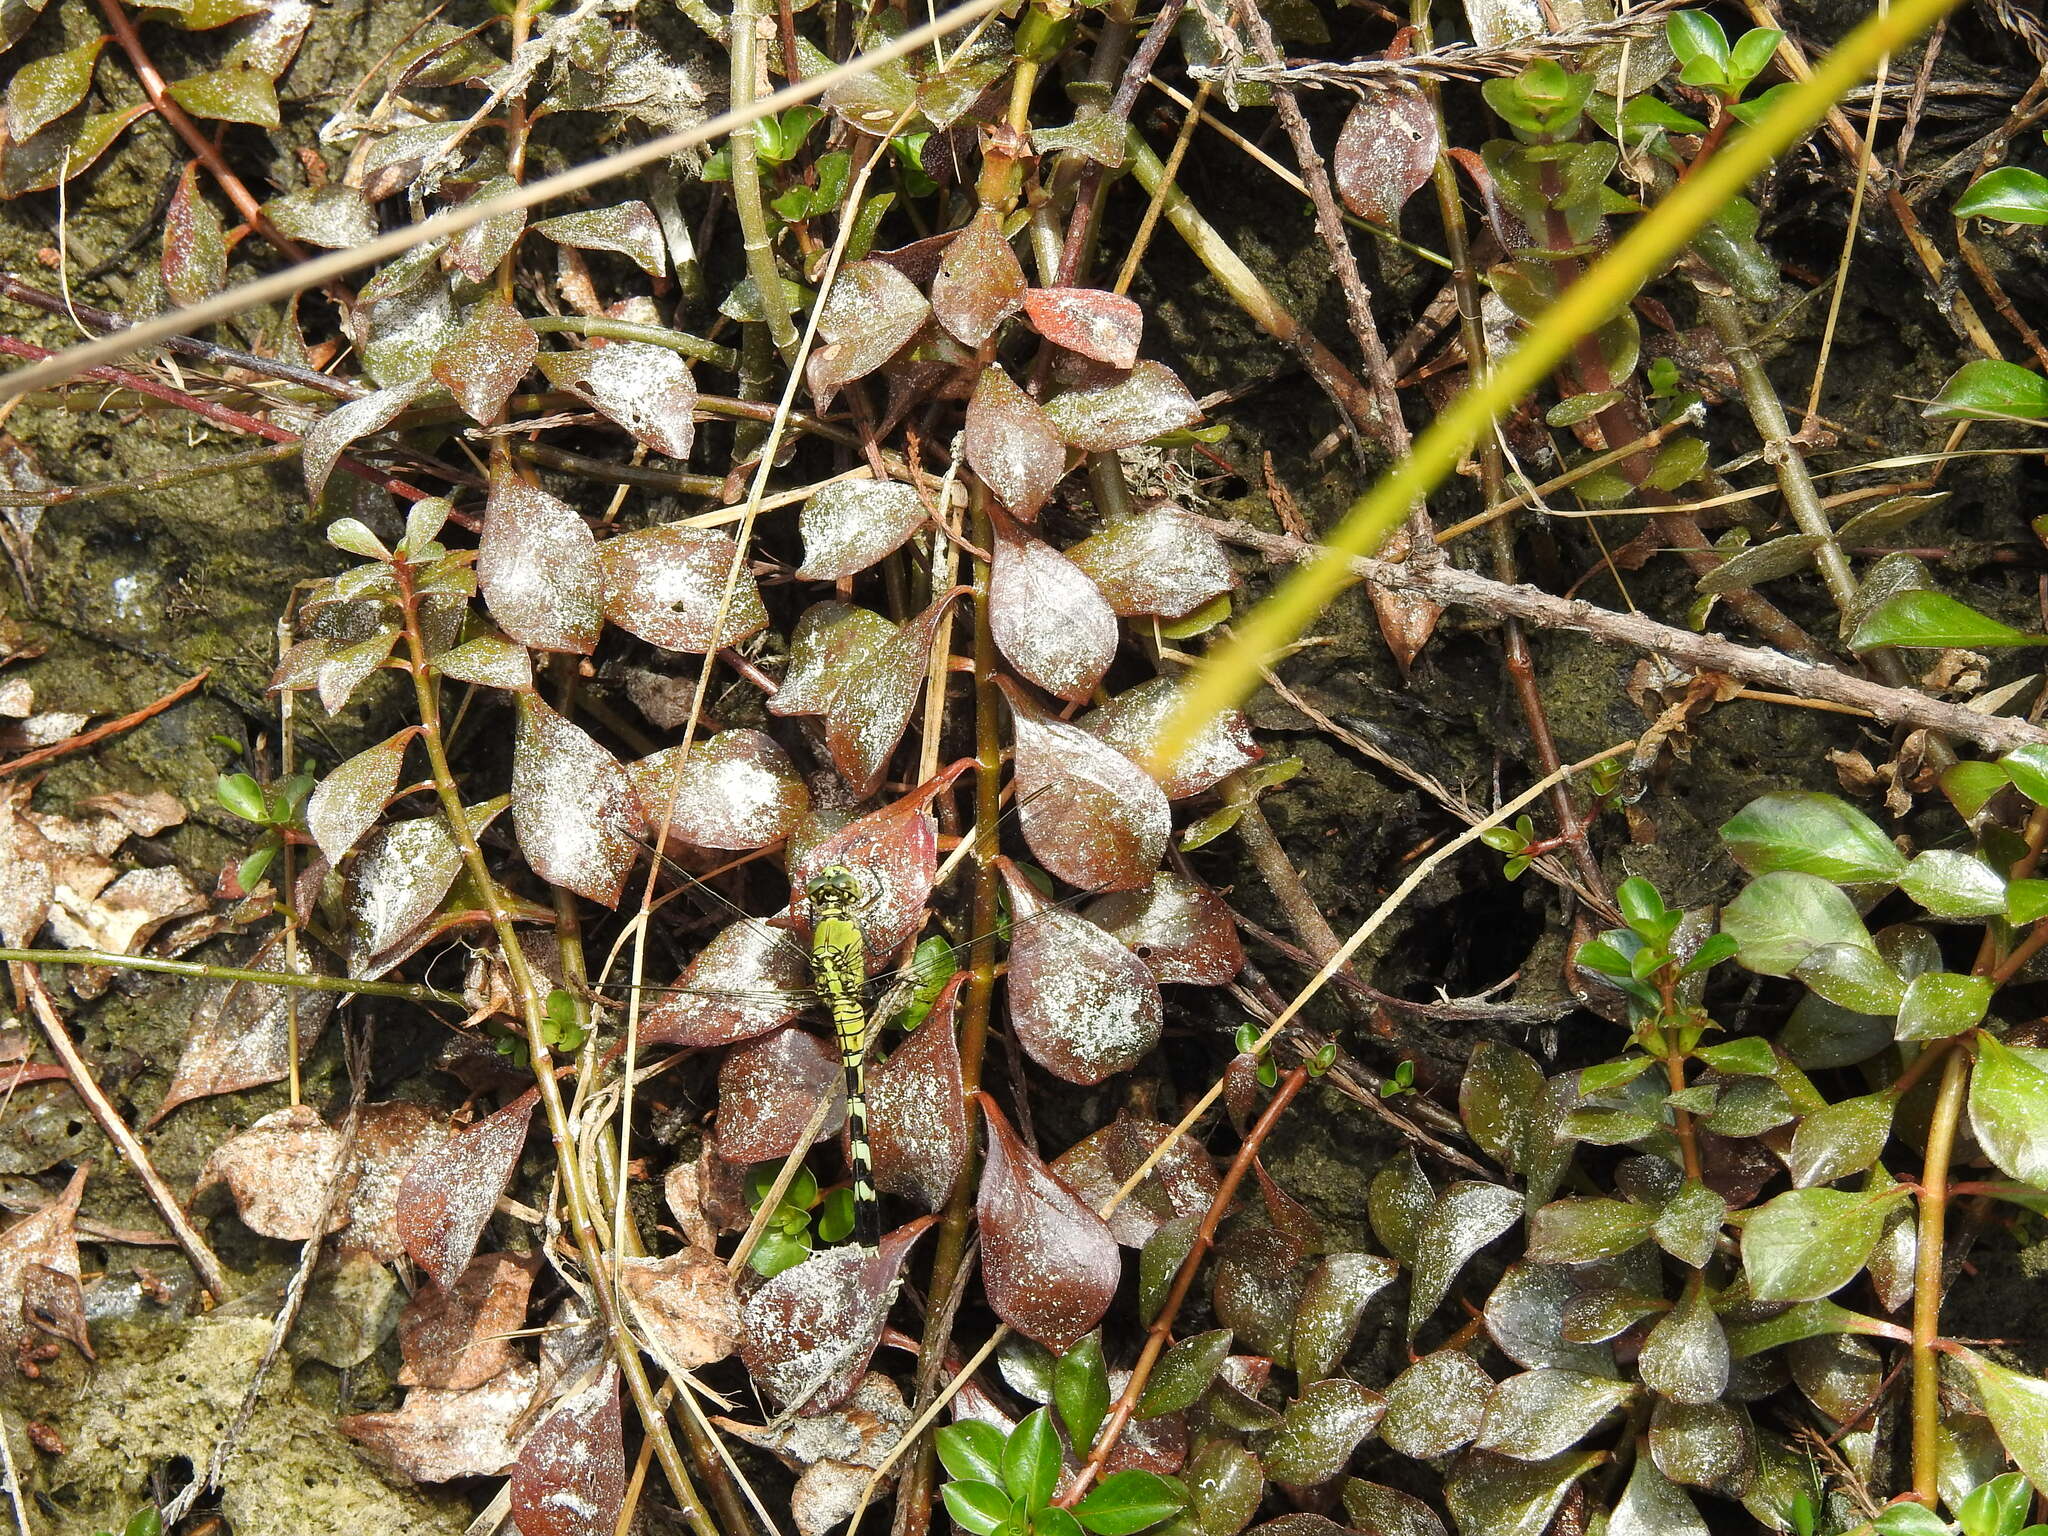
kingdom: Animalia
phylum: Arthropoda
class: Insecta
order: Odonata
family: Libellulidae
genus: Erythemis
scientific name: Erythemis simplicicollis
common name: Eastern pondhawk
